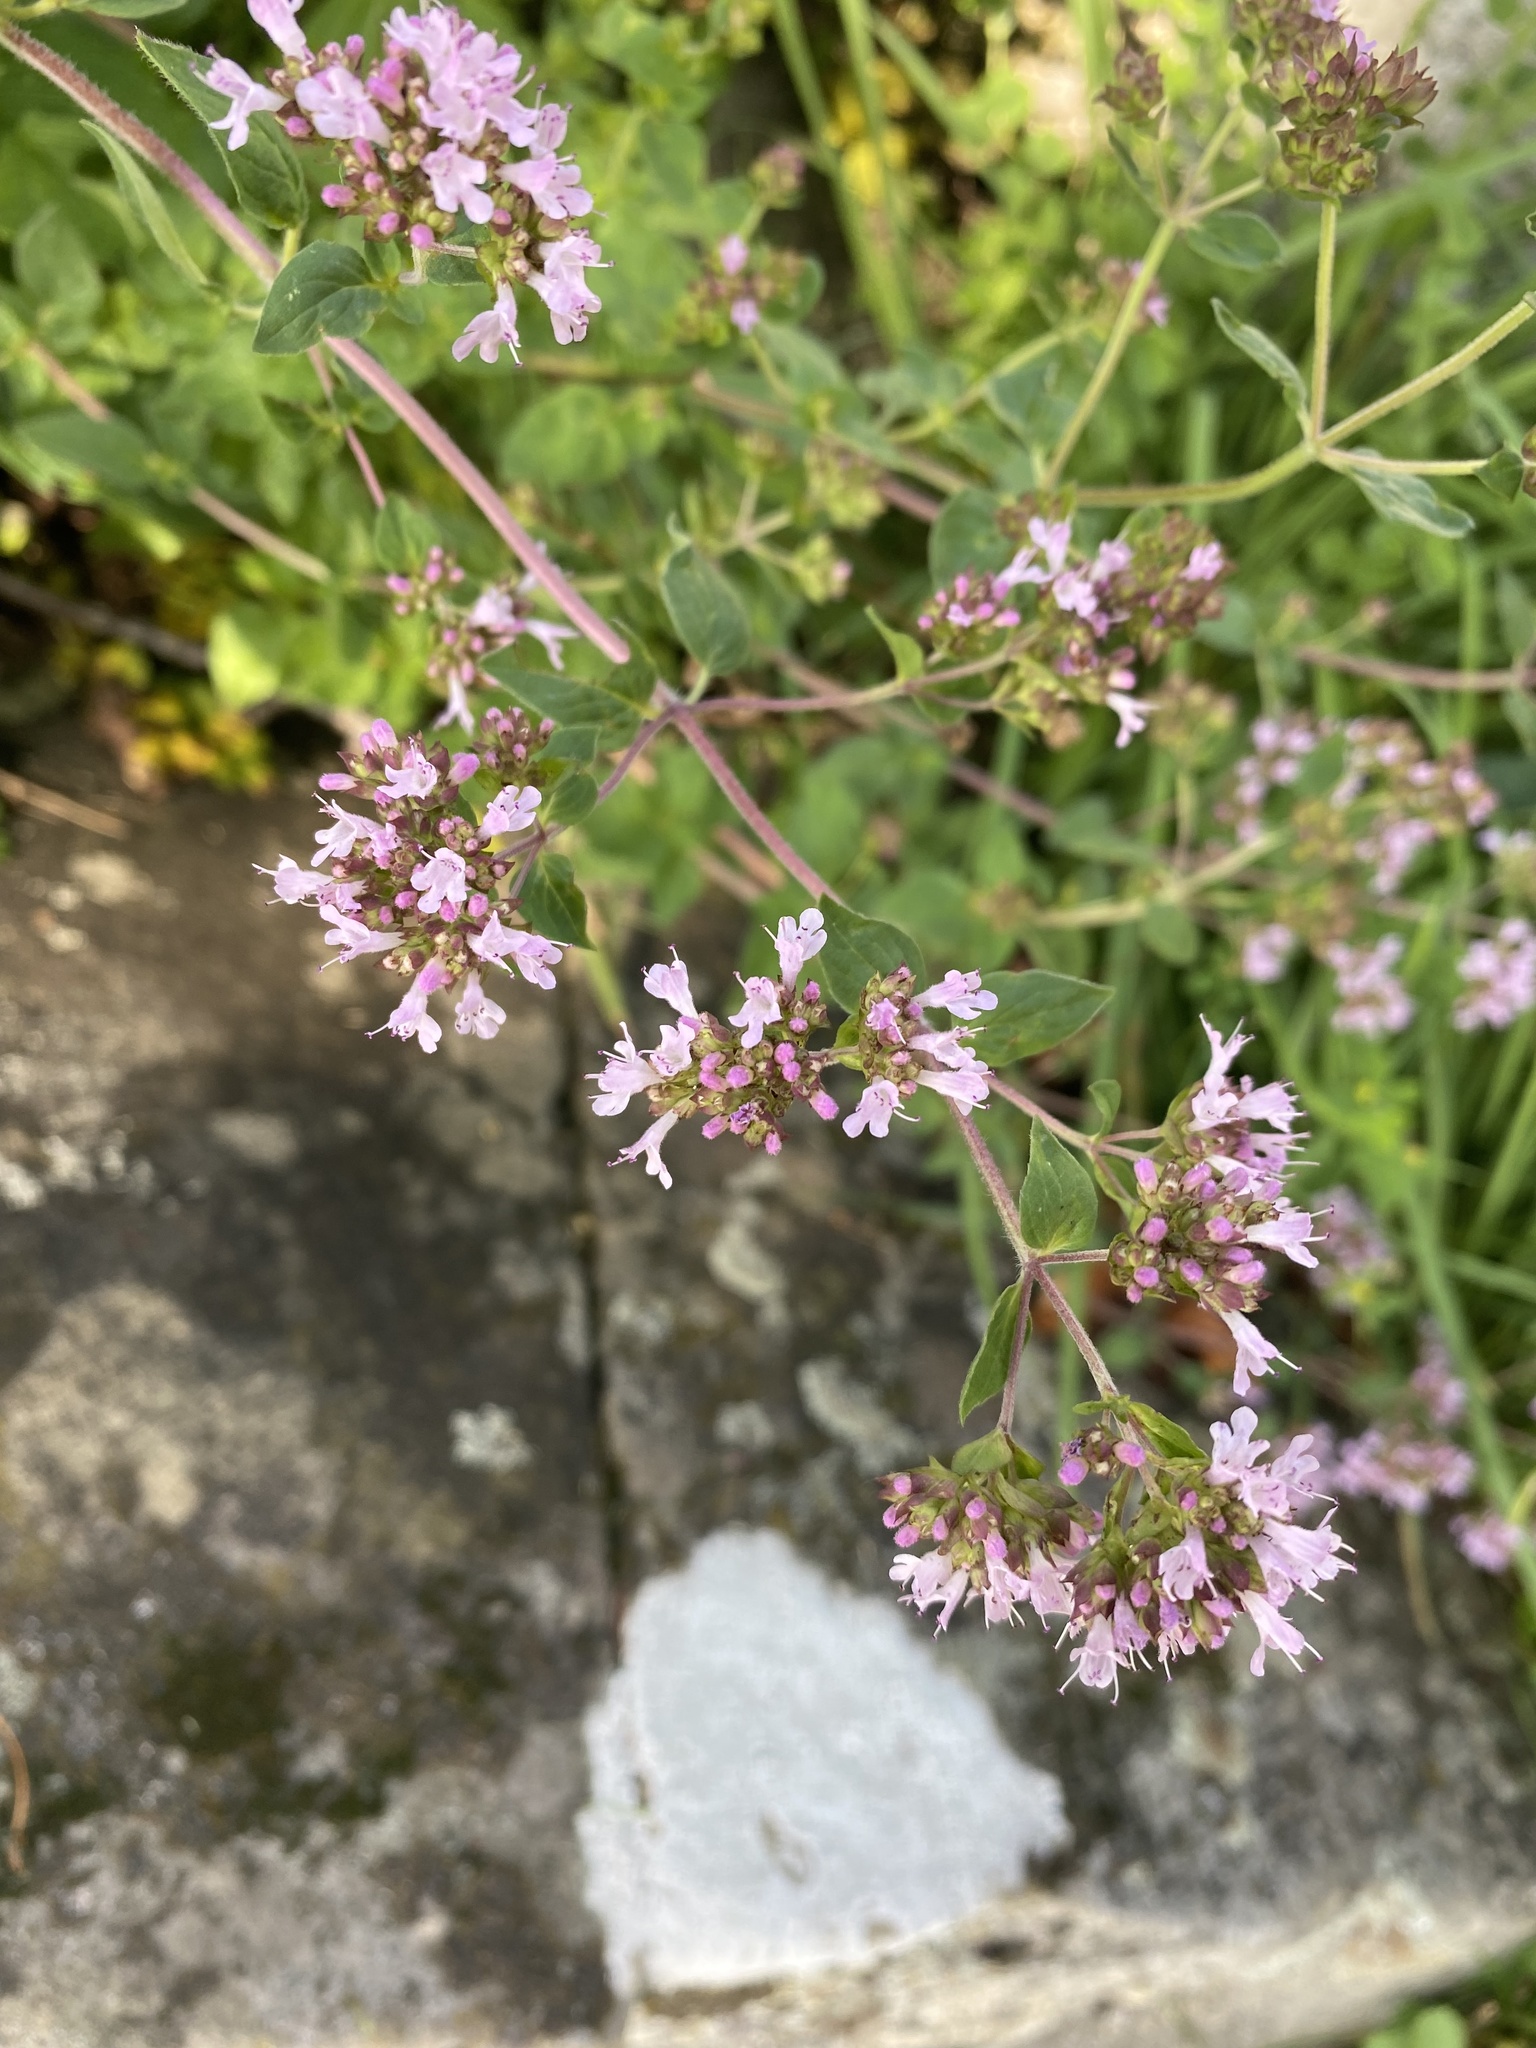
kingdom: Plantae
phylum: Tracheophyta
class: Magnoliopsida
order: Lamiales
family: Lamiaceae
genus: Origanum
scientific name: Origanum vulgare
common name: Wild marjoram
